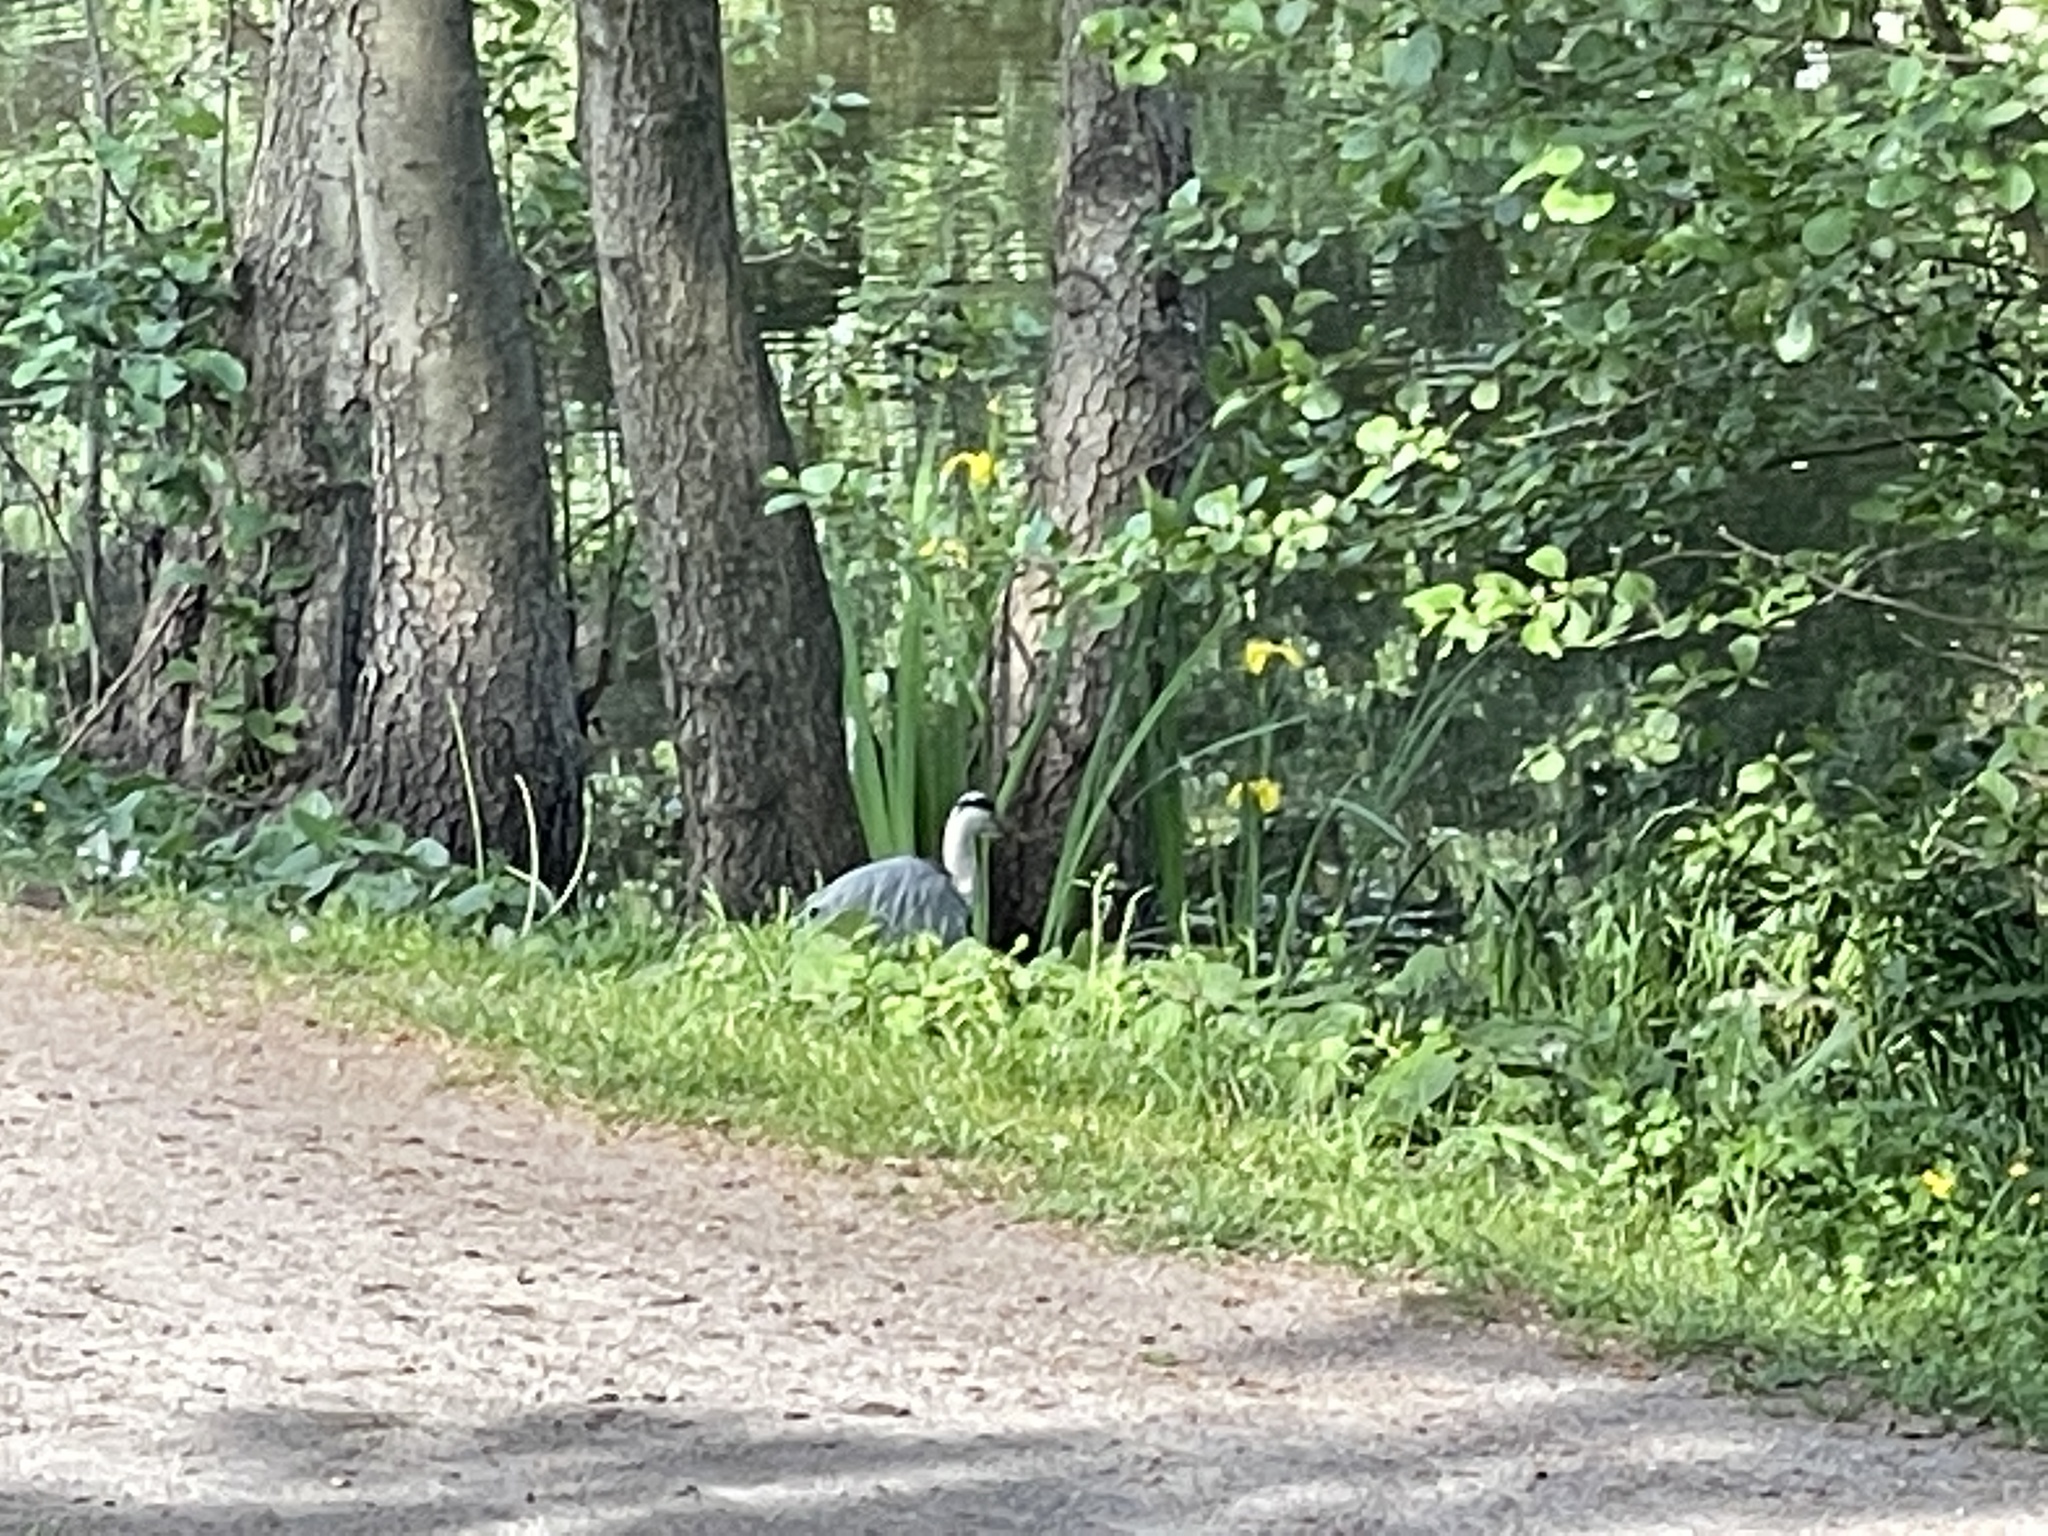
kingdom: Animalia
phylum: Chordata
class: Aves
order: Pelecaniformes
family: Ardeidae
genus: Ardea
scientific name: Ardea cinerea
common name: Grey heron
